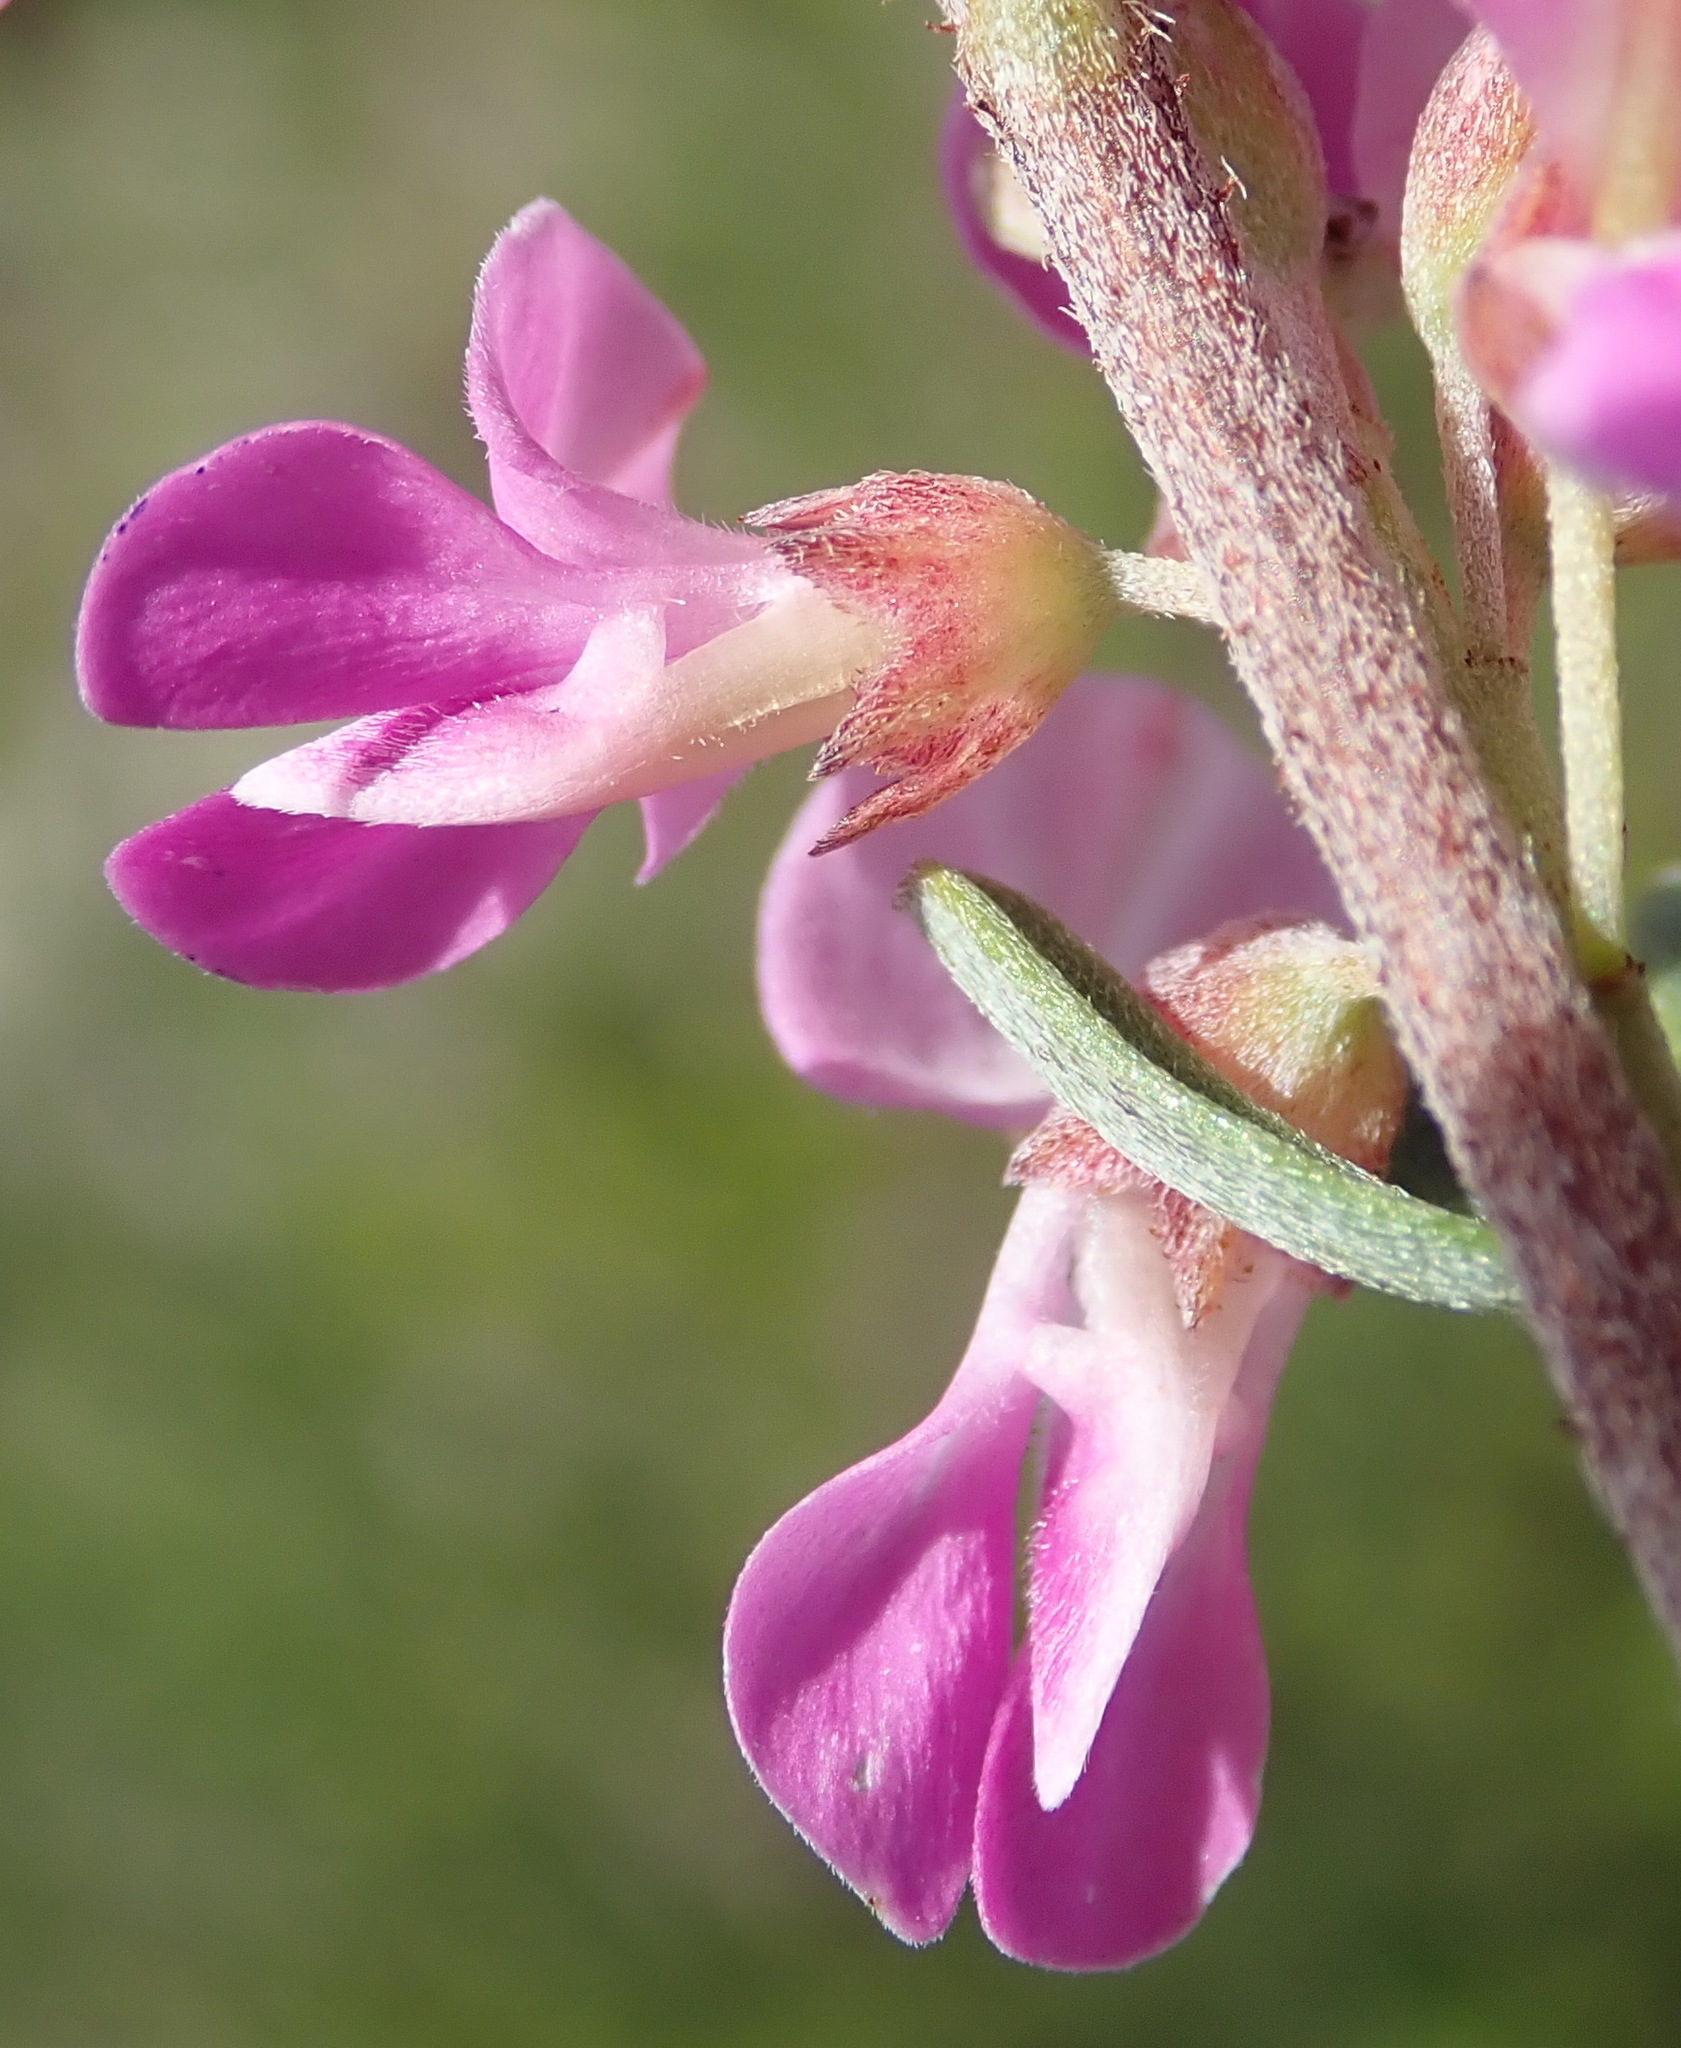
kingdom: Plantae
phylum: Tracheophyta
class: Magnoliopsida
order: Fabales
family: Fabaceae
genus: Indigofera
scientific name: Indigofera flabellata
